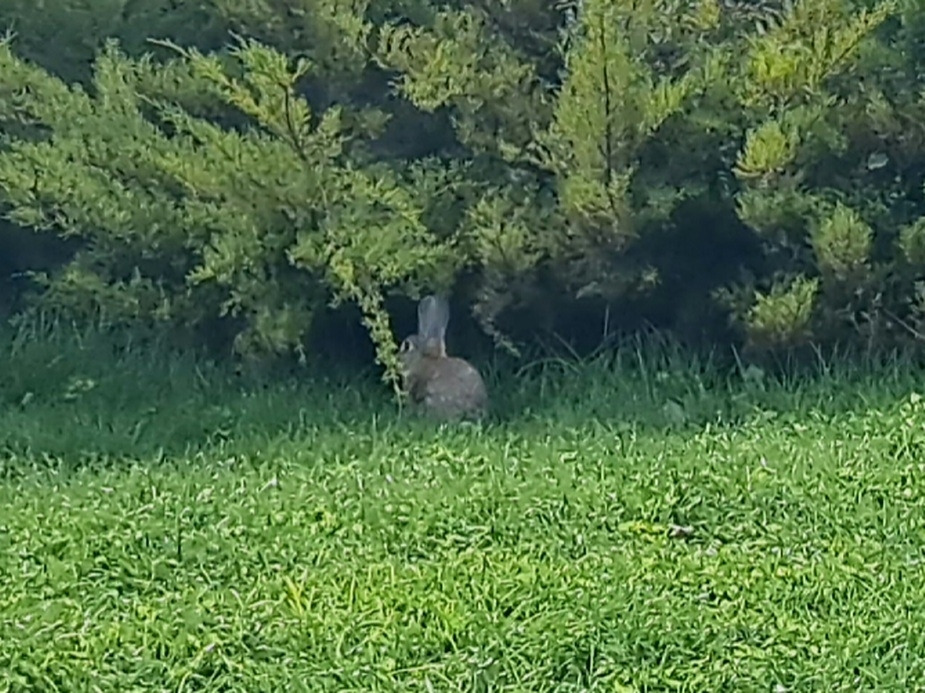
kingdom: Animalia
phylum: Chordata
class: Mammalia
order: Lagomorpha
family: Leporidae
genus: Oryctolagus
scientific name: Oryctolagus cuniculus
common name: European rabbit
